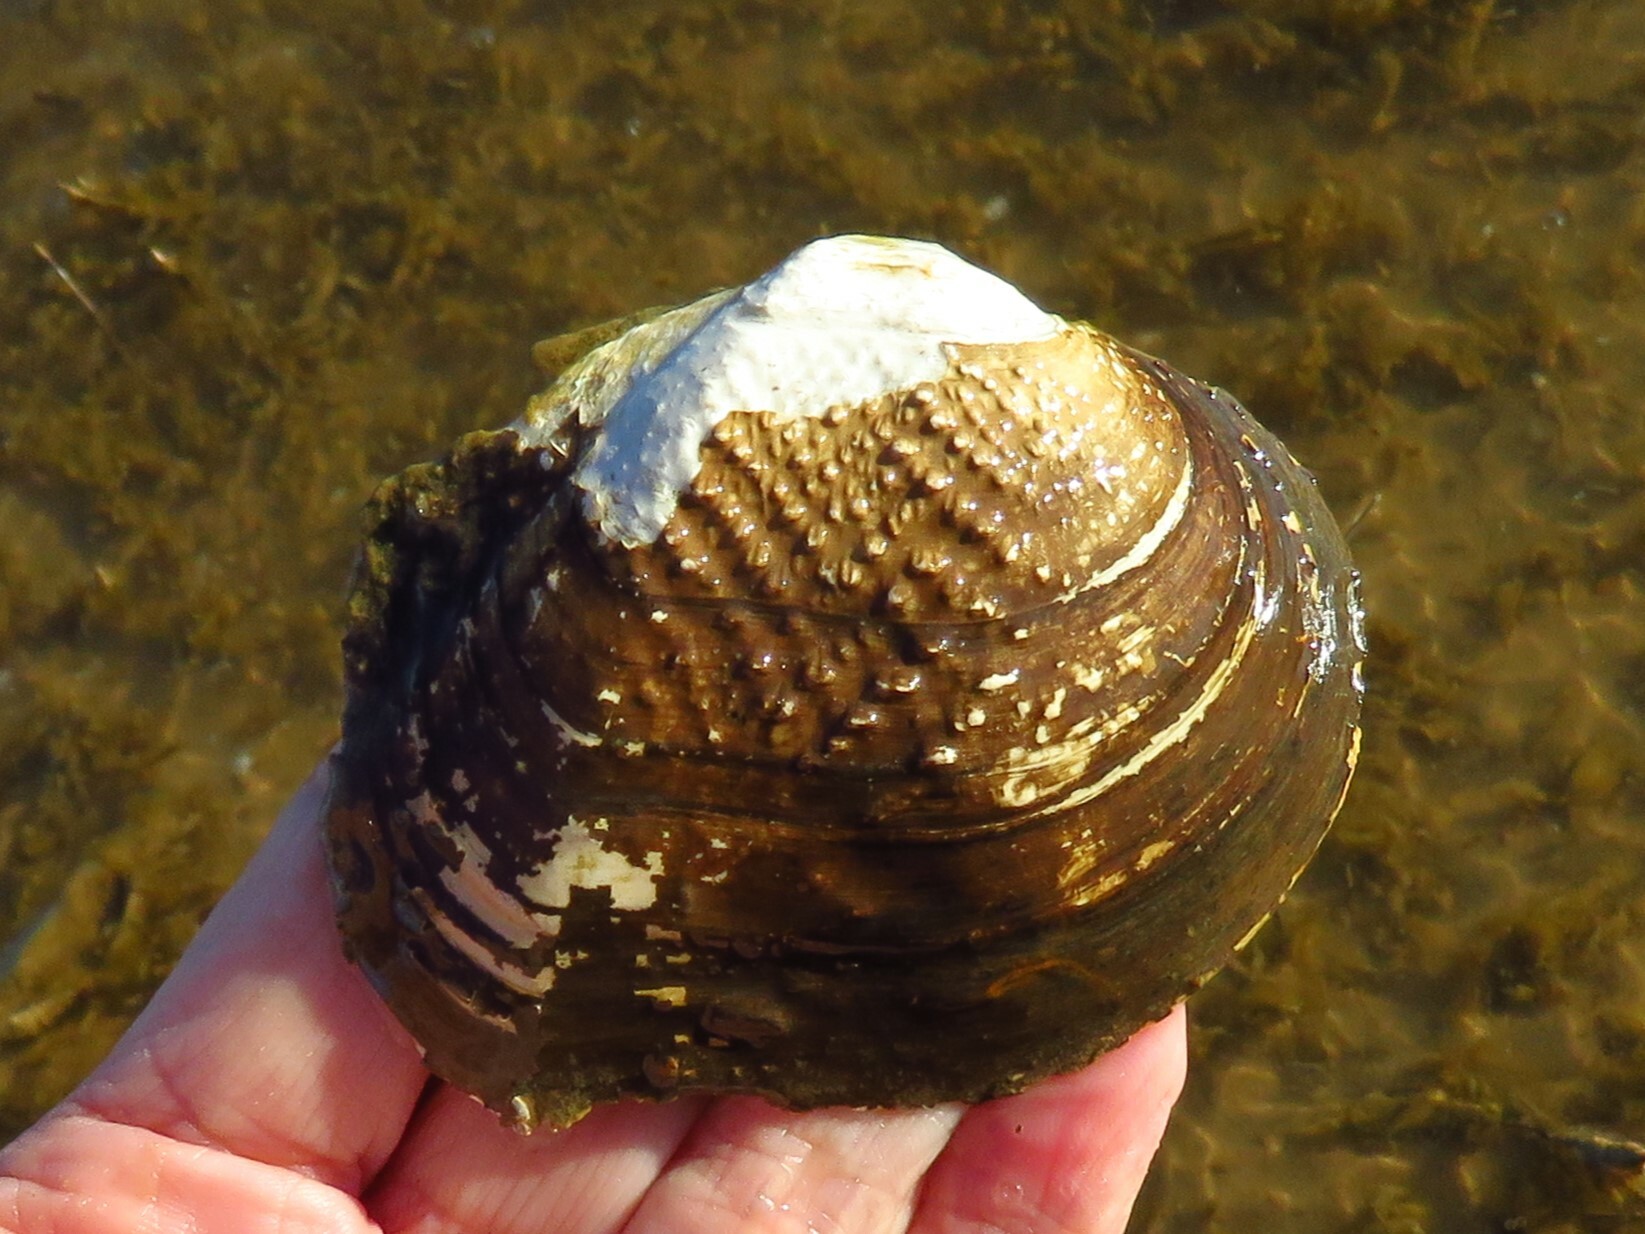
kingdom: Animalia
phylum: Mollusca
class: Bivalvia
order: Unionida
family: Unionidae
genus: Quadrula
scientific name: Quadrula quadrula
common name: Mapleleaf
